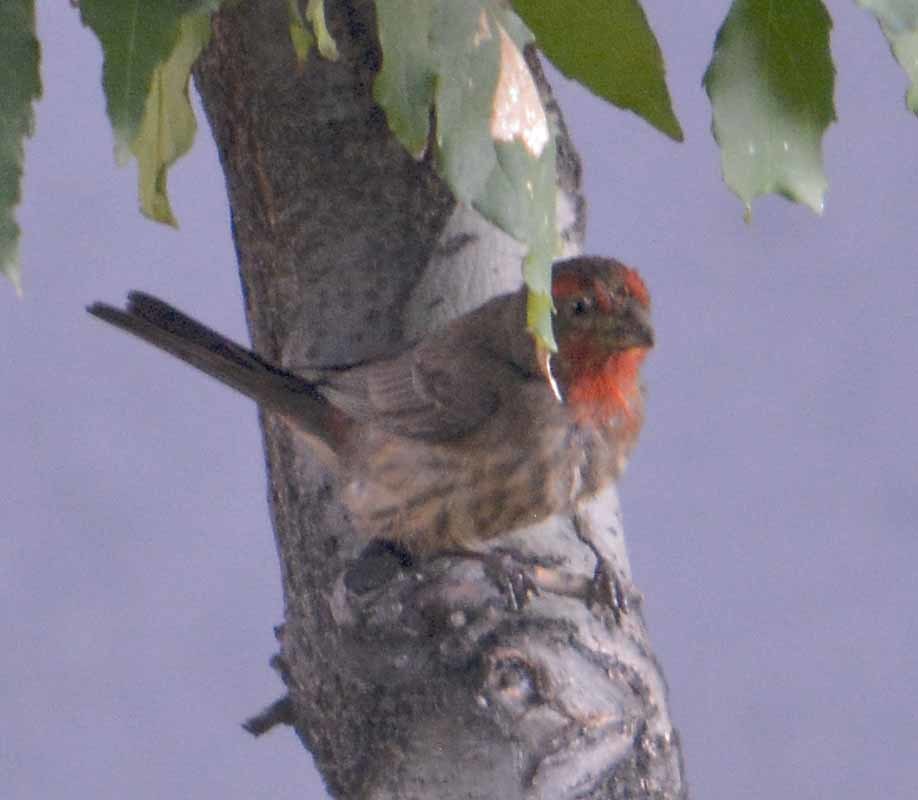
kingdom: Animalia
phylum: Chordata
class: Aves
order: Passeriformes
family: Fringillidae
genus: Haemorhous
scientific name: Haemorhous mexicanus
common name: House finch
